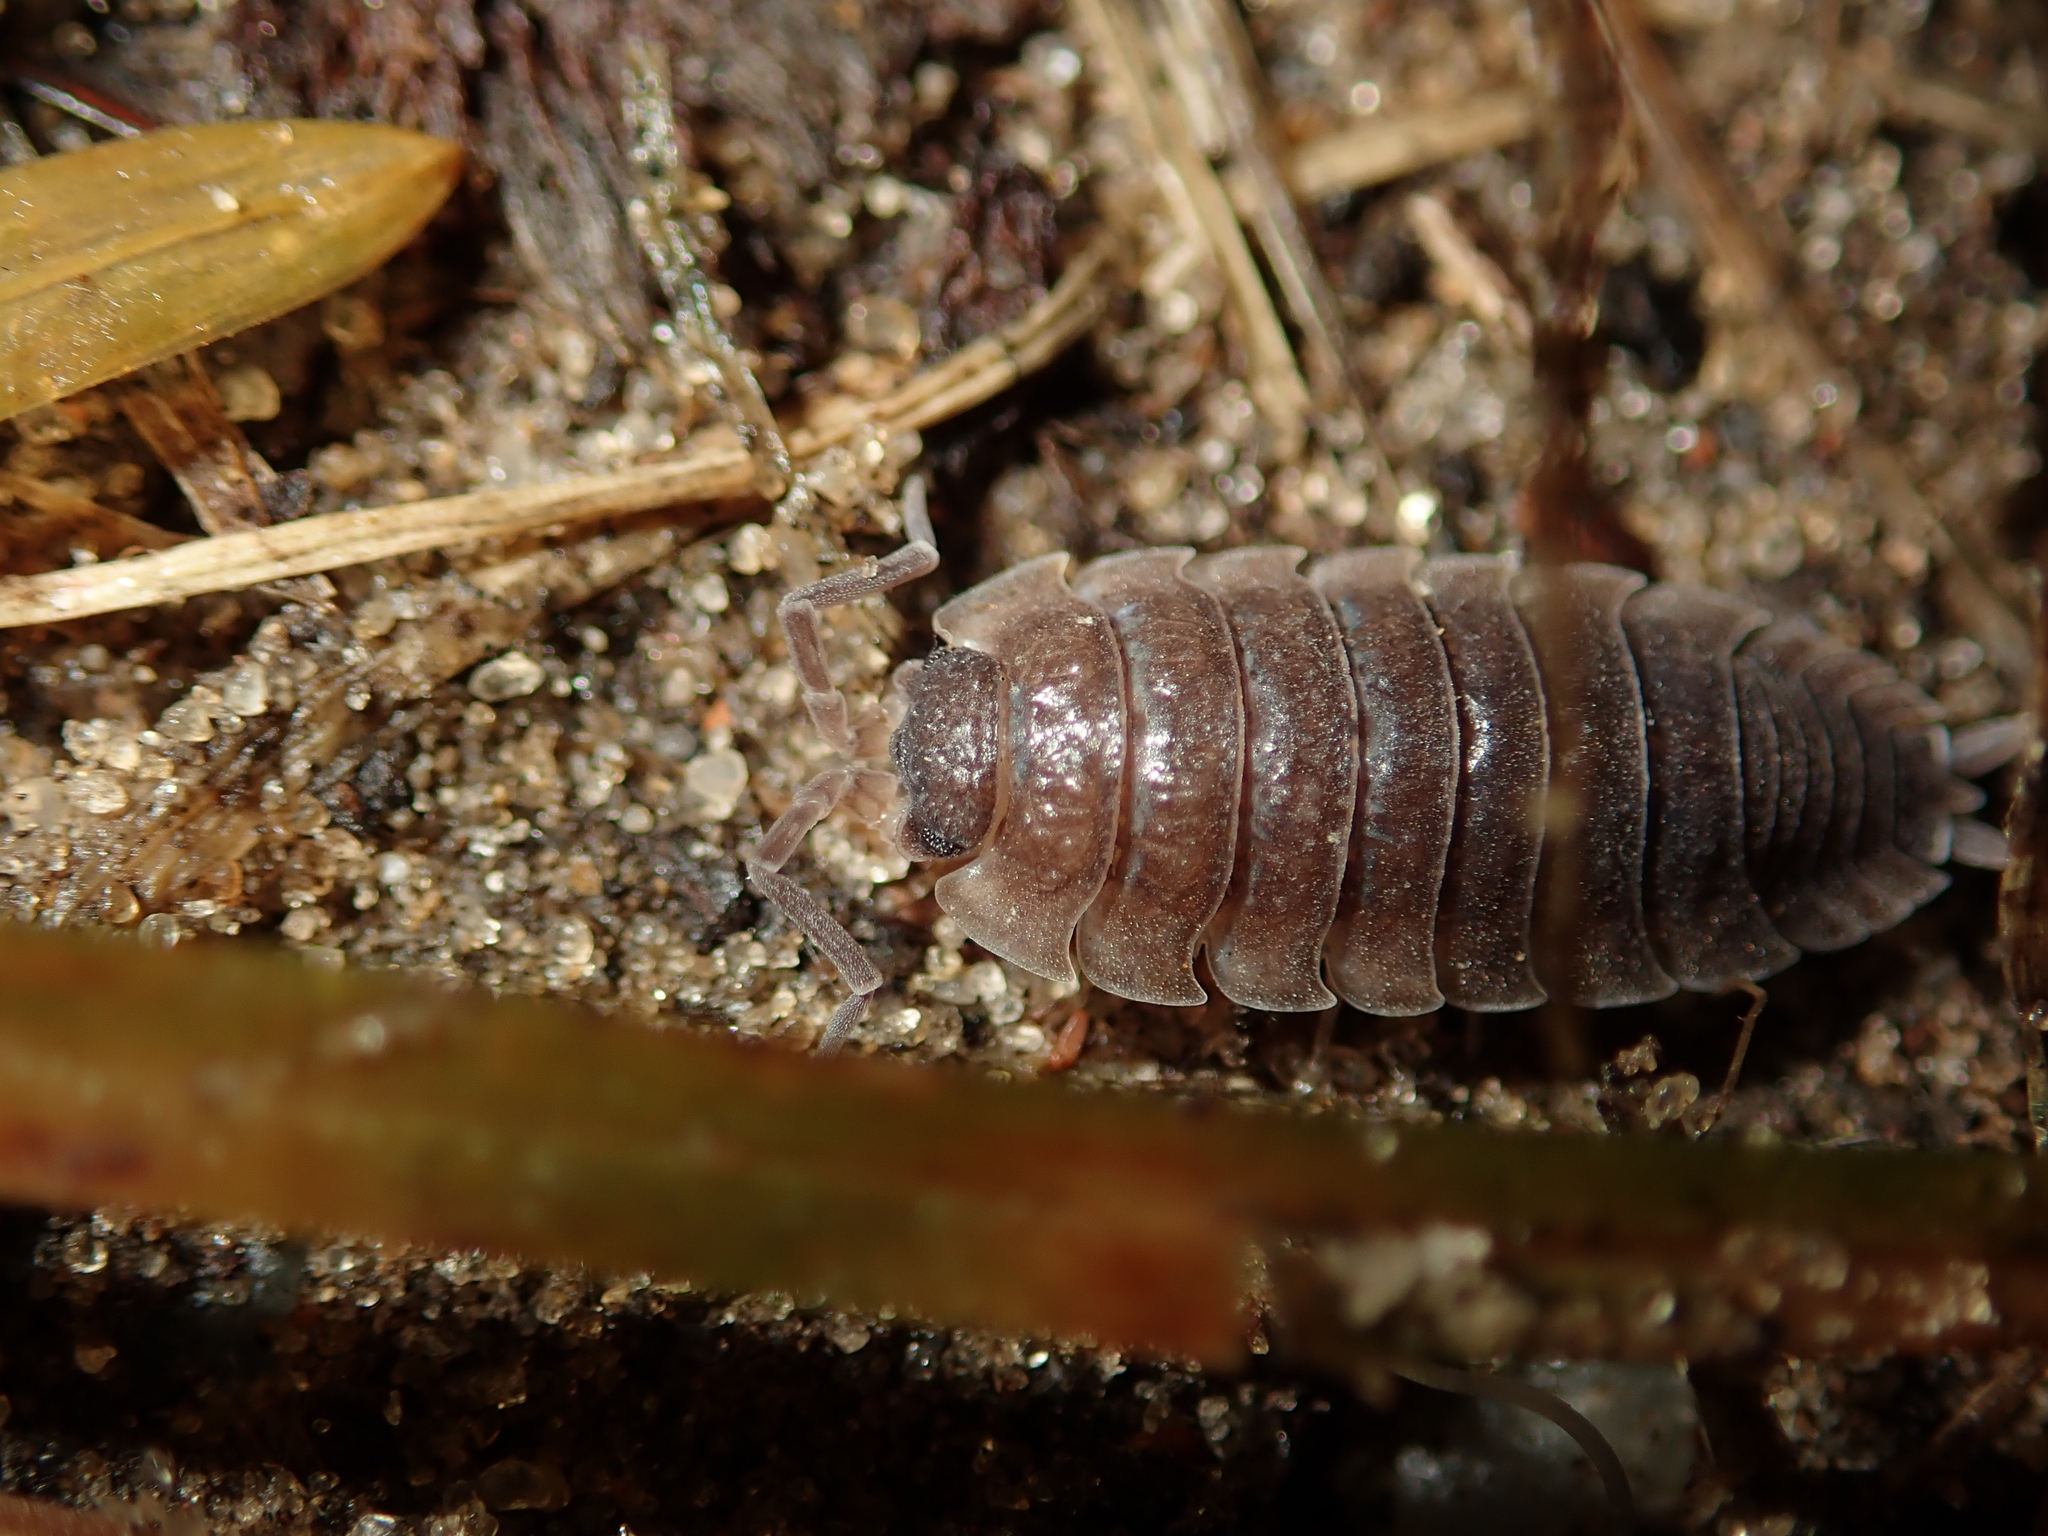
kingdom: Animalia
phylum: Arthropoda
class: Malacostraca
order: Isopoda
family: Porcellionidae
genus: Porcellio
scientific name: Porcellio scaber
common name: Common rough woodlouse
